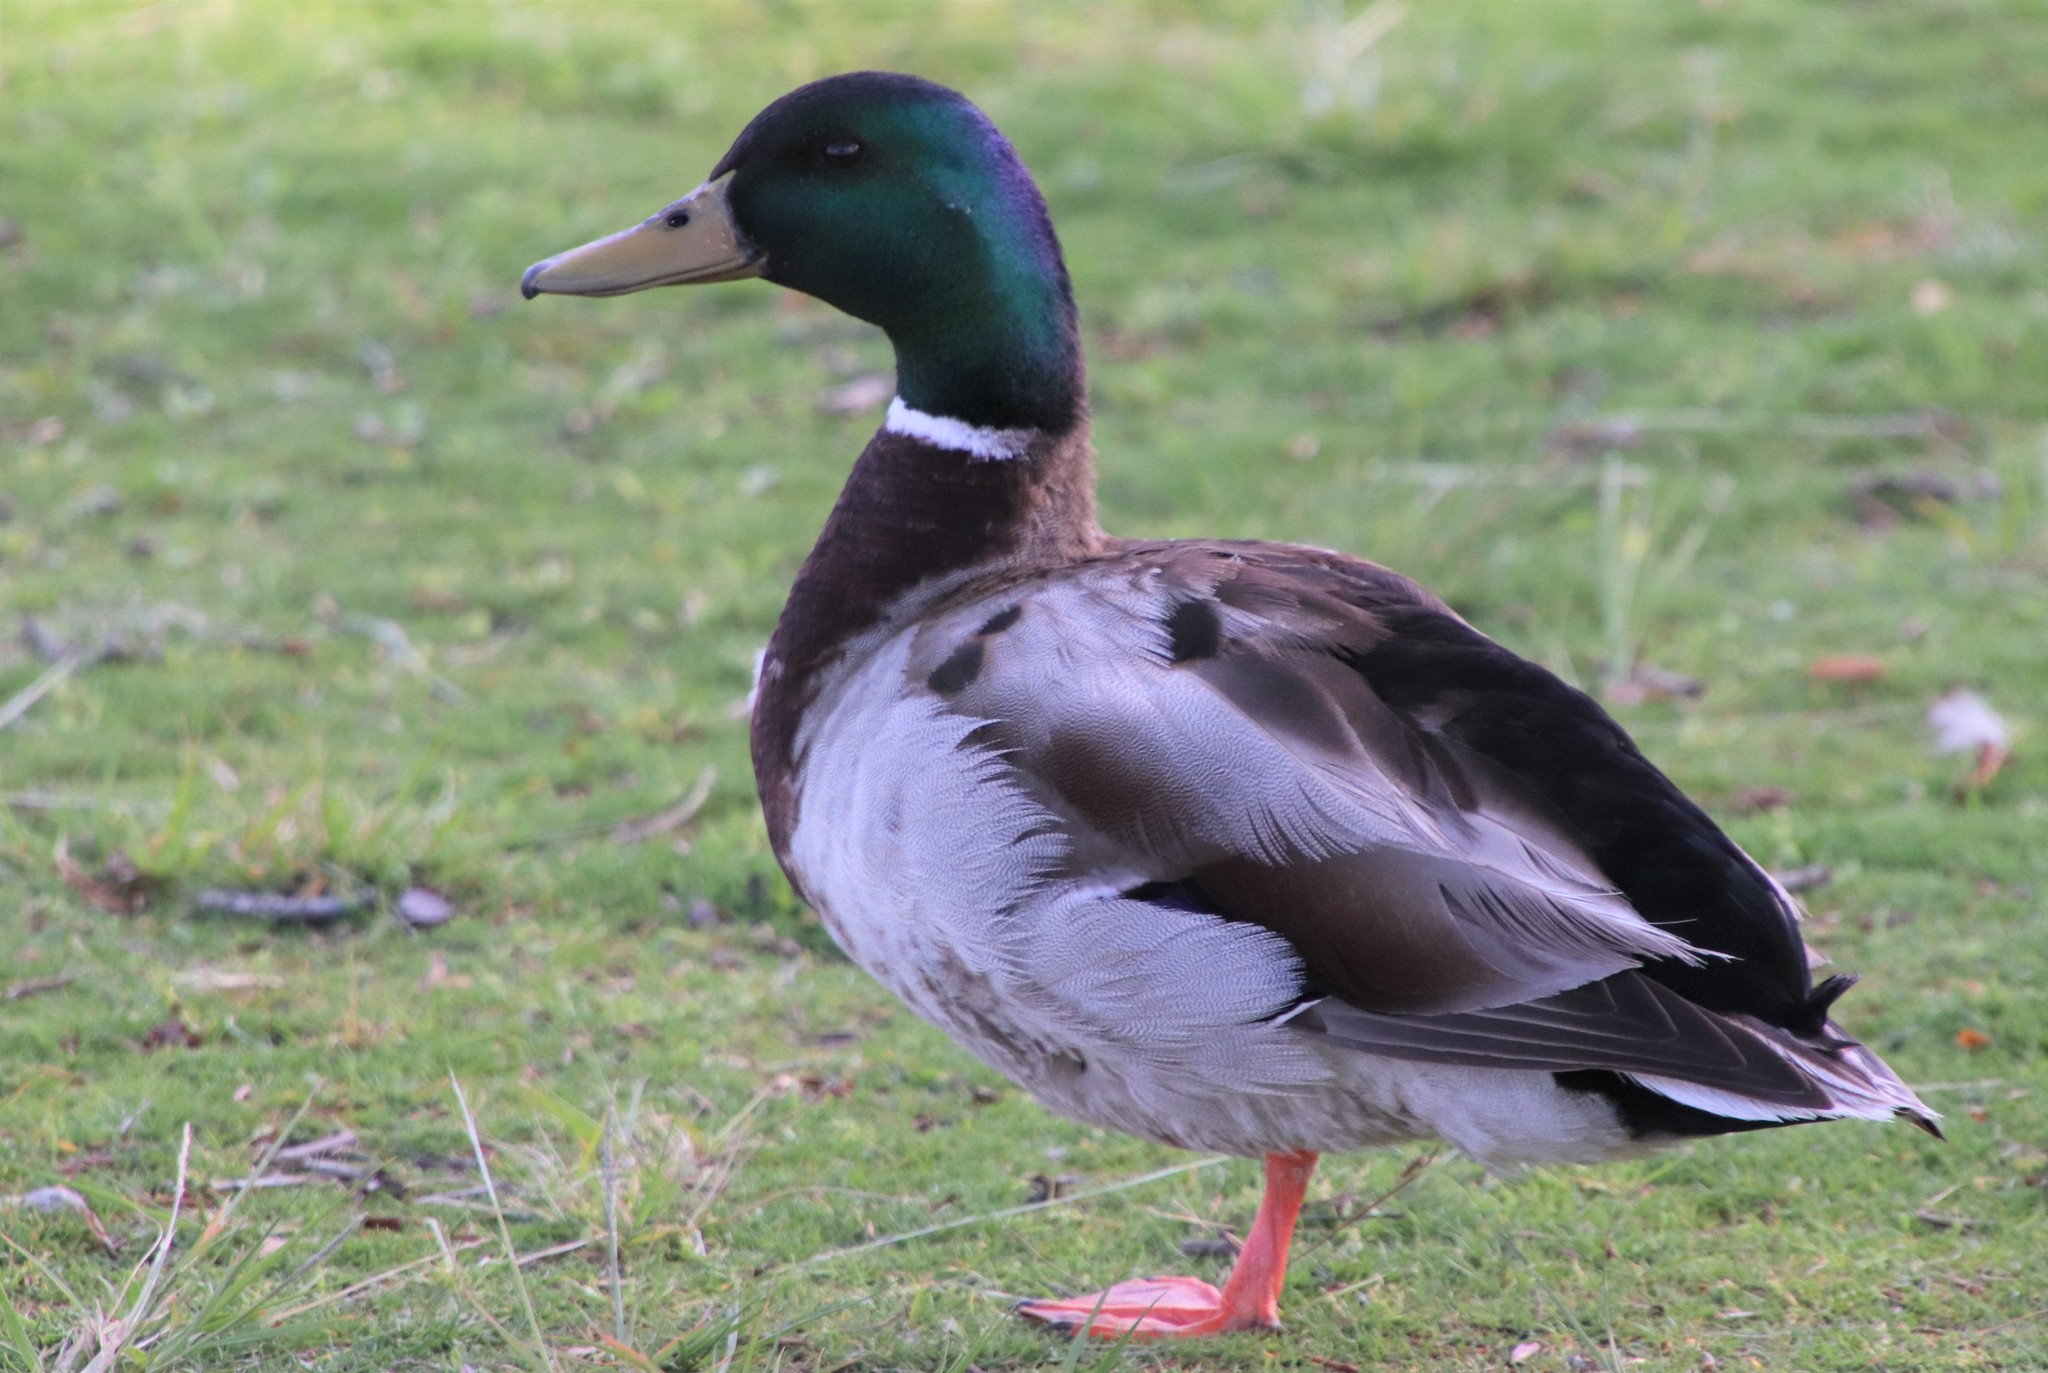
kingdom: Animalia
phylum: Chordata
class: Aves
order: Anseriformes
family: Anatidae
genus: Anas
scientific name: Anas platyrhynchos
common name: Mallard
